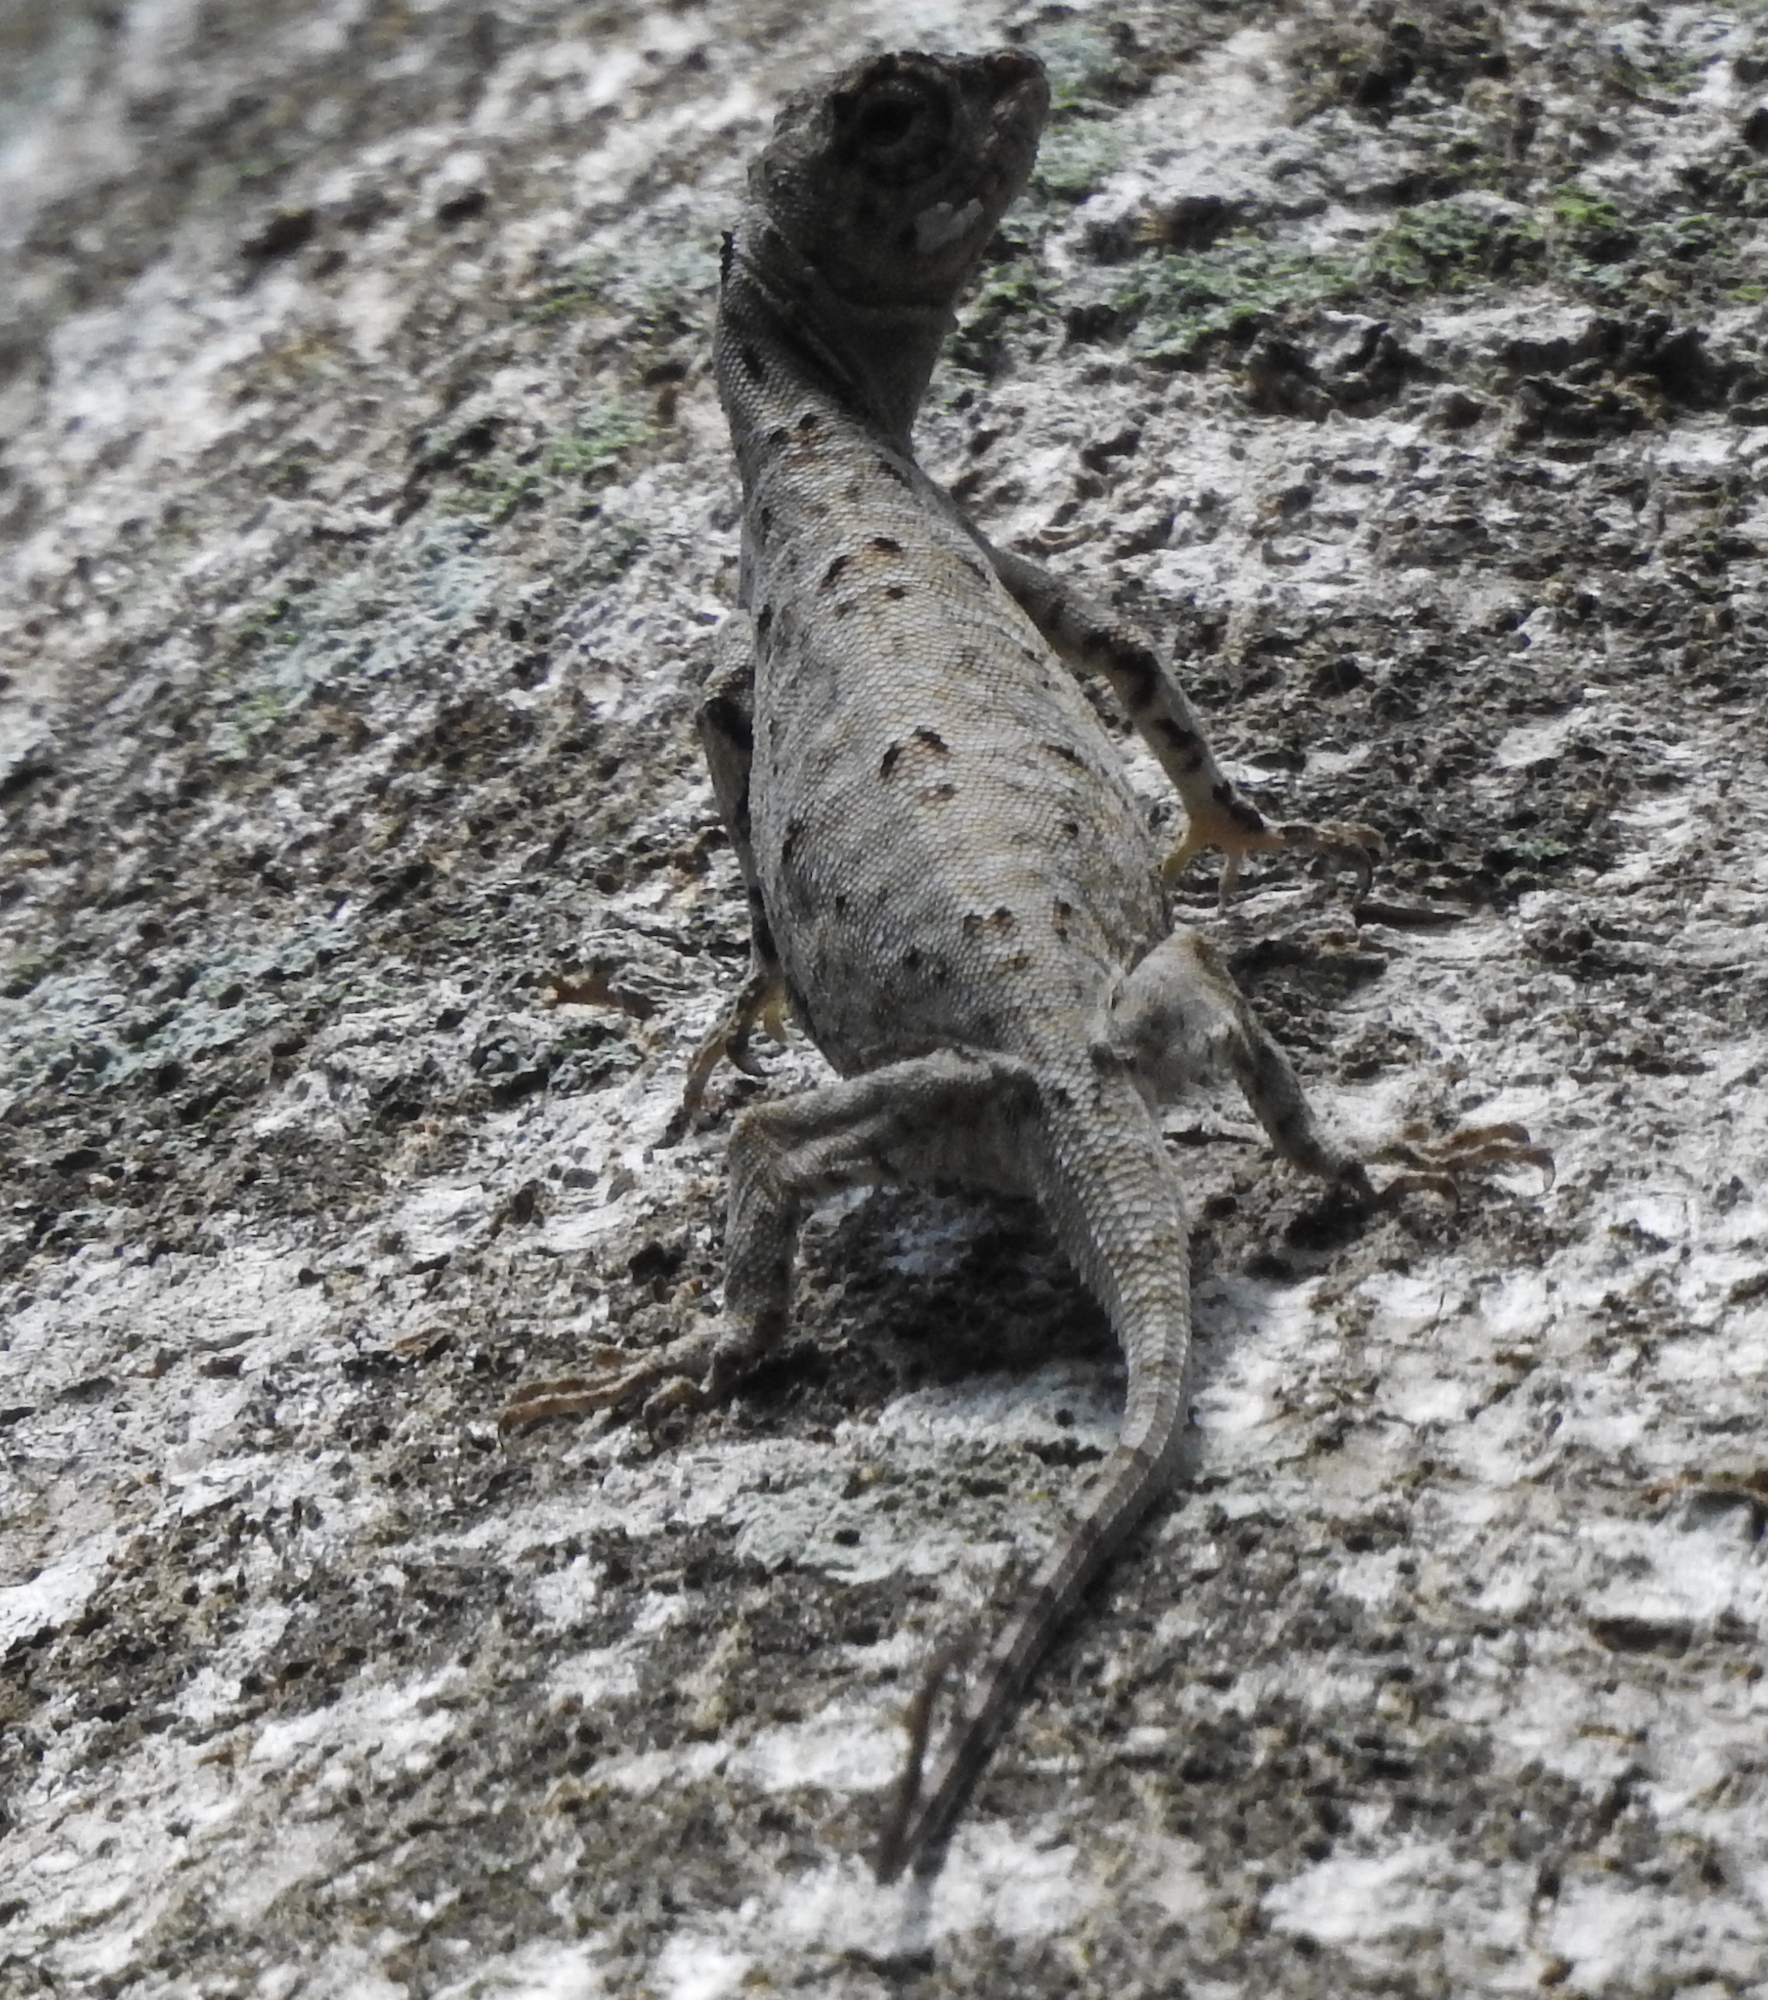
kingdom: Animalia
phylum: Chordata
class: Squamata
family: Agamidae
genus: Draco
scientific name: Draco sumatranus
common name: Common gliding lizard
